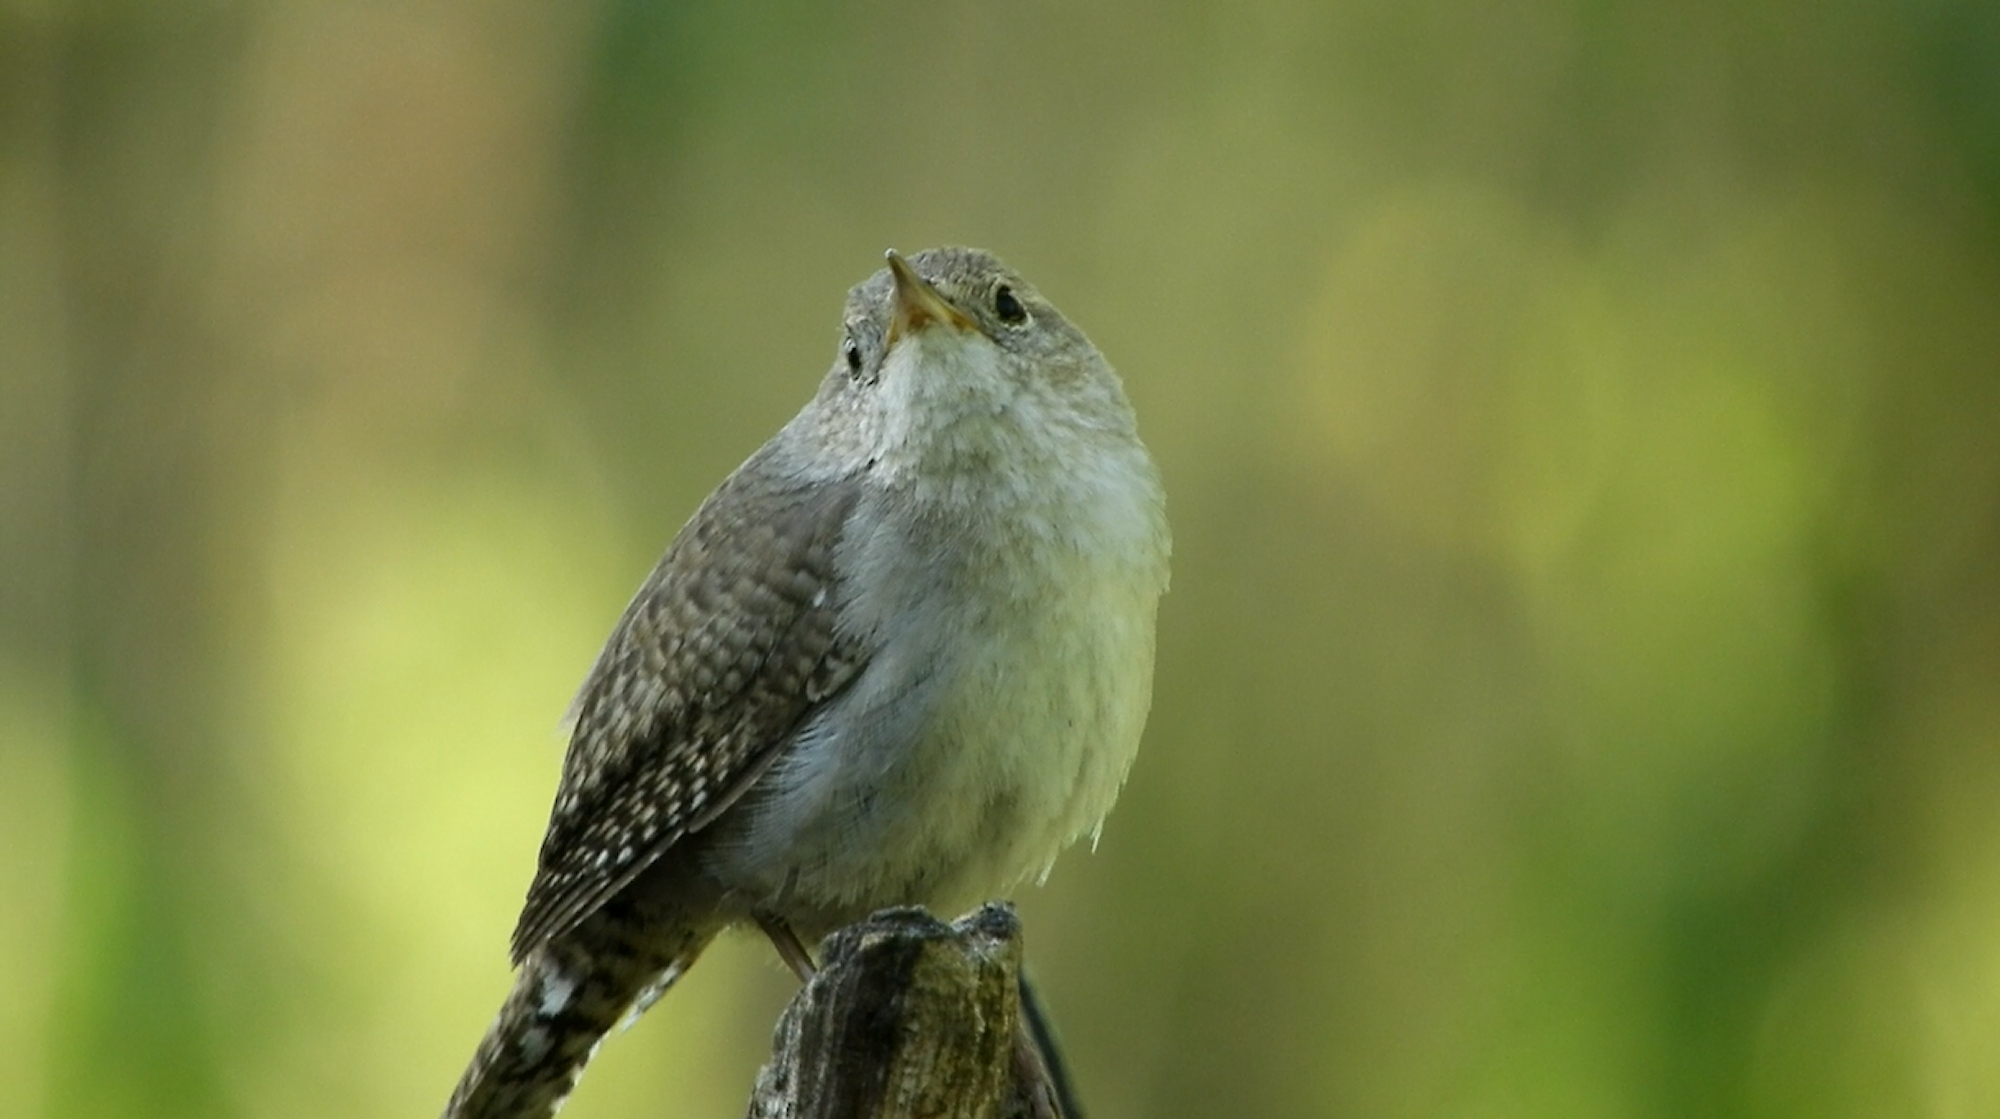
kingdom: Animalia
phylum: Chordata
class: Aves
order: Passeriformes
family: Troglodytidae
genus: Troglodytes
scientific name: Troglodytes aedon
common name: House wren
